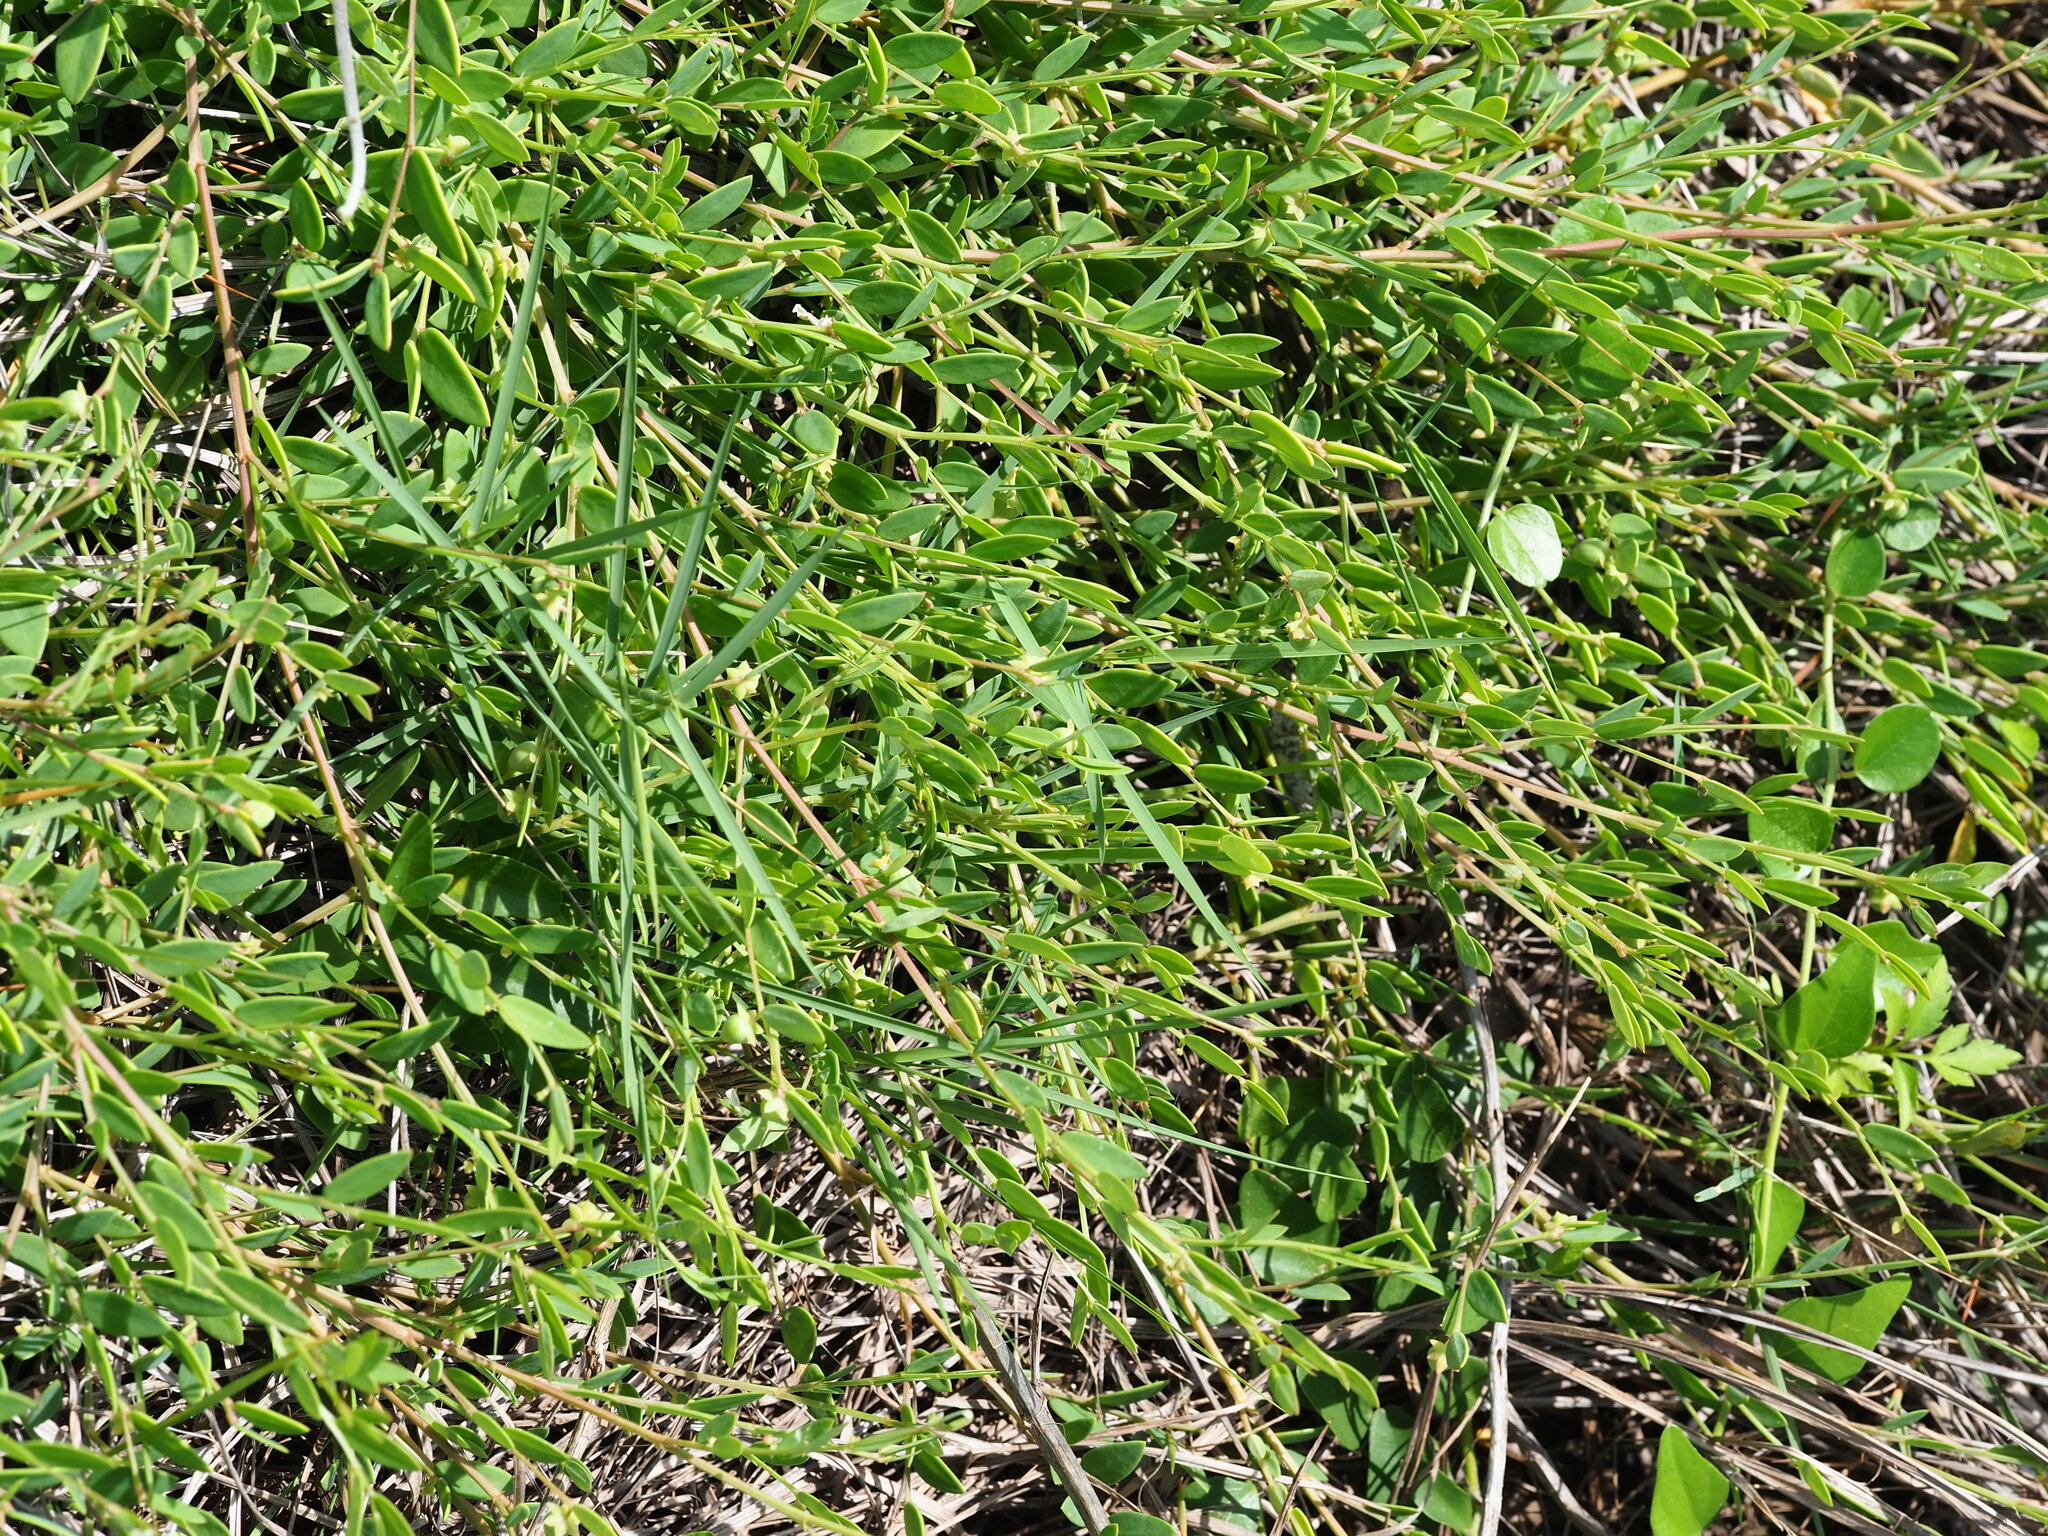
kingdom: Plantae
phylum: Tracheophyta
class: Magnoliopsida
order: Malpighiales
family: Phyllanthaceae
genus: Synostemon
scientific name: Synostemon bacciformis
